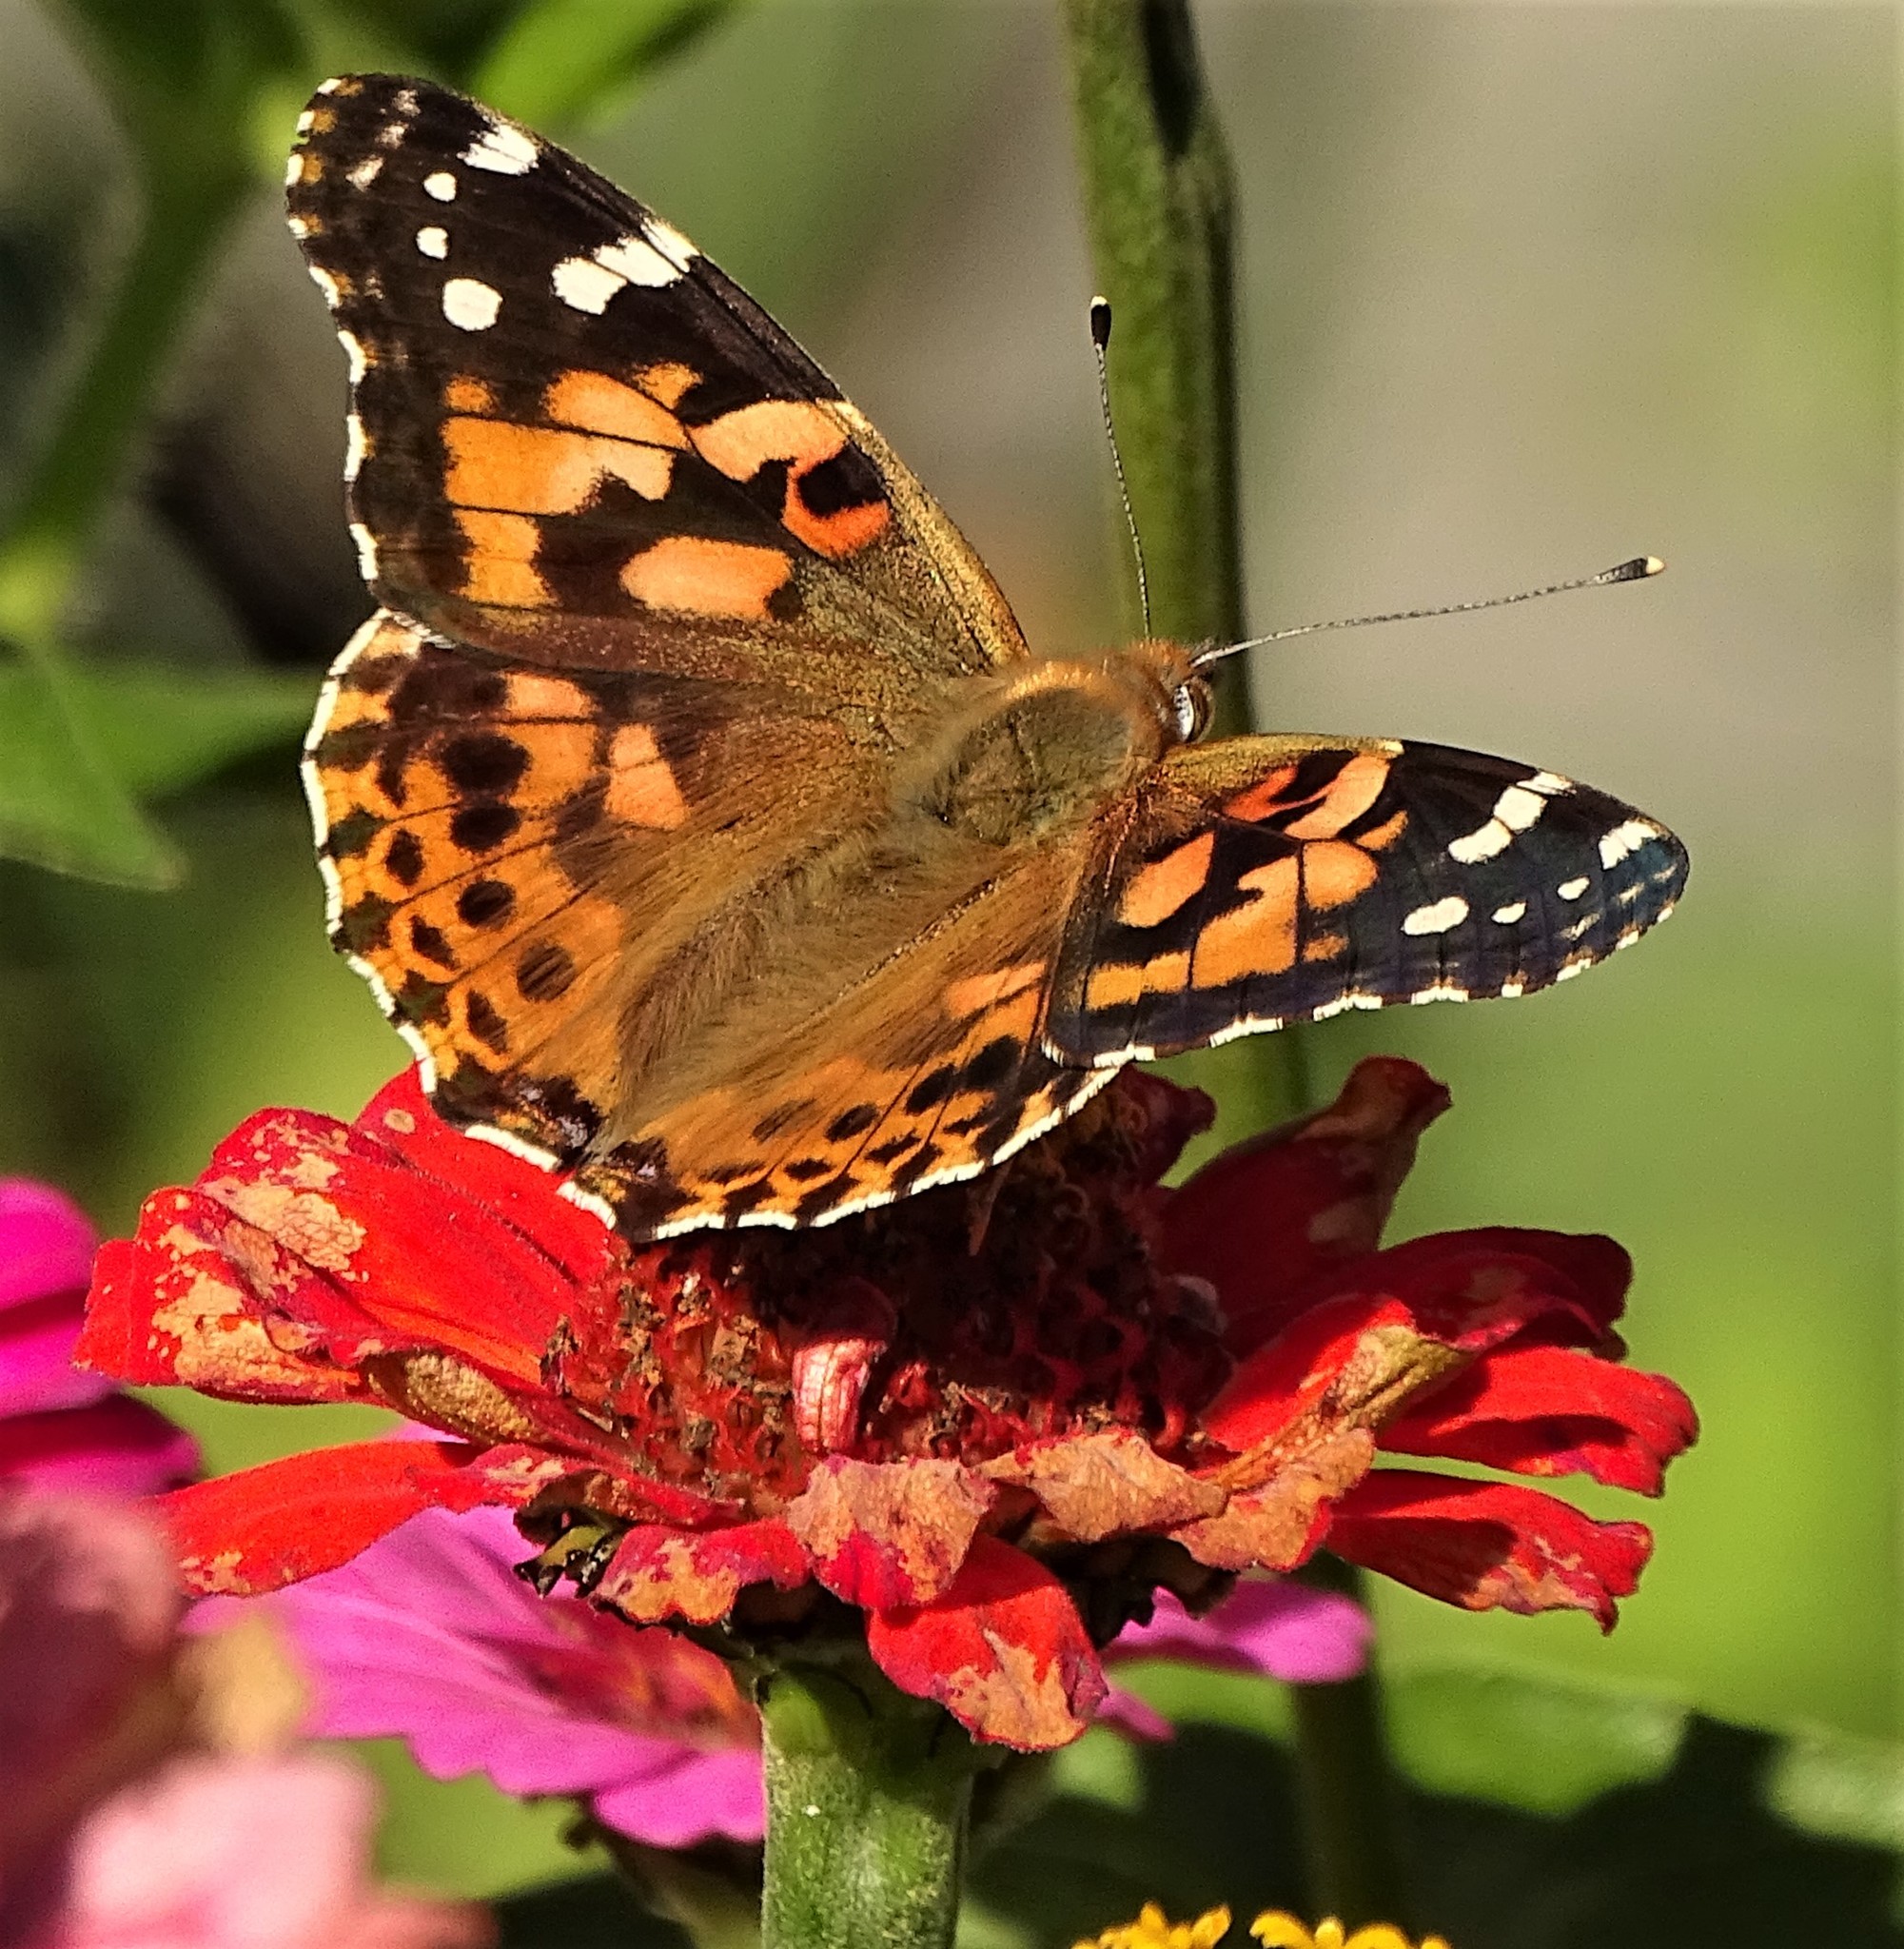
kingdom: Animalia
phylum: Arthropoda
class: Insecta
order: Lepidoptera
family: Nymphalidae
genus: Vanessa
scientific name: Vanessa cardui
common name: Painted lady
